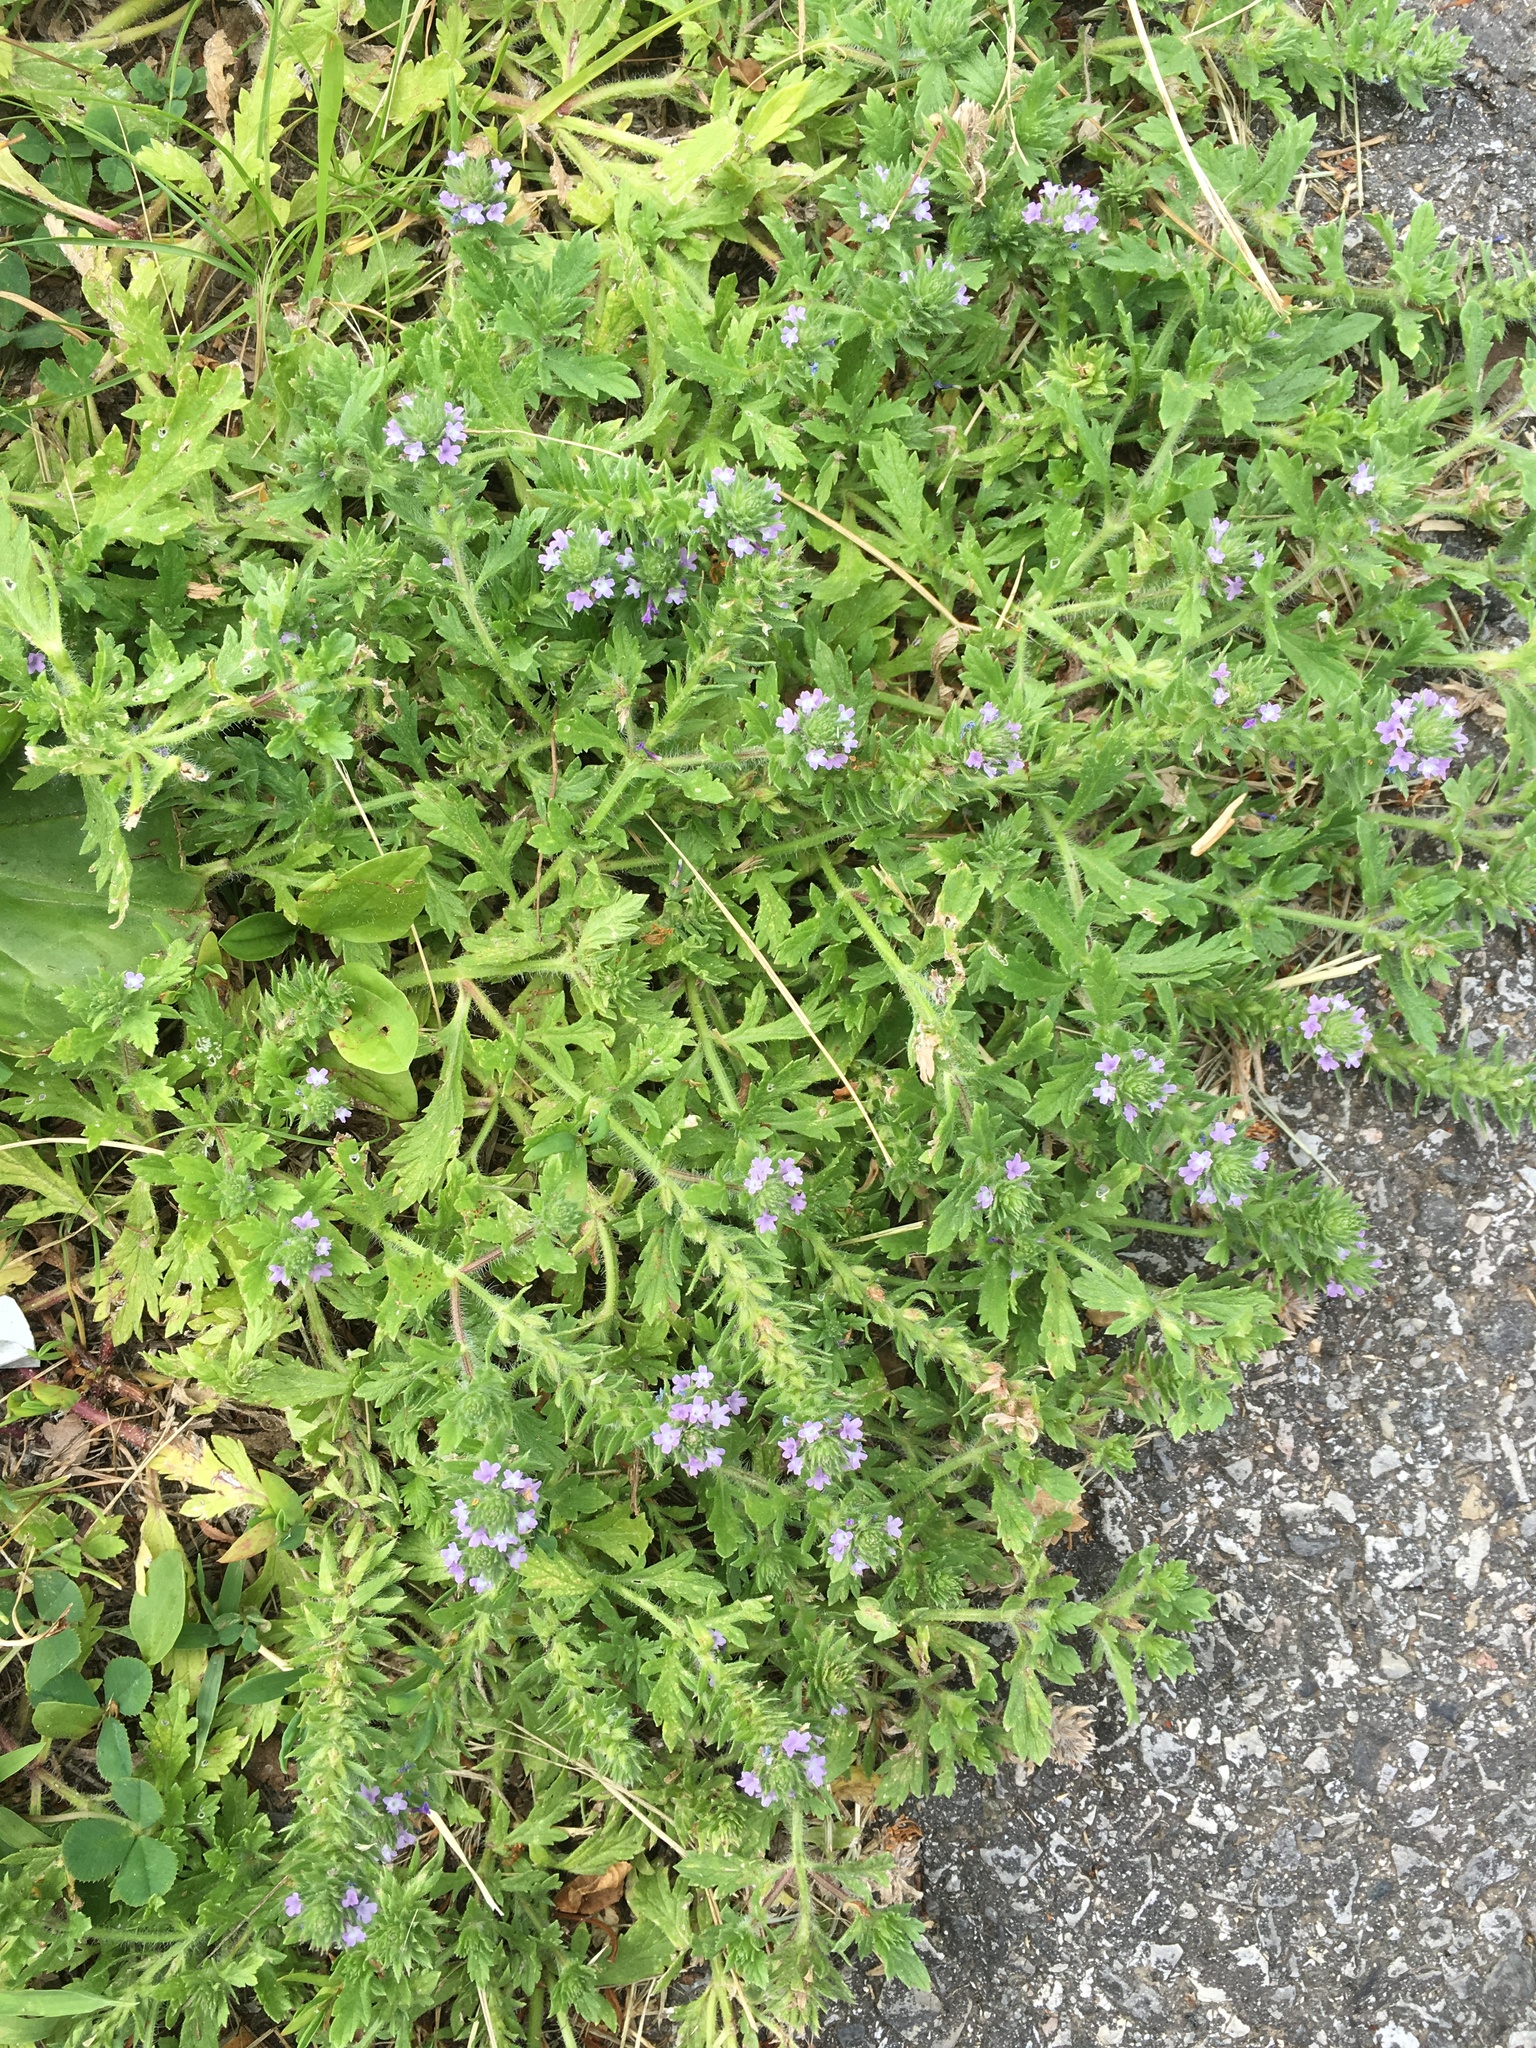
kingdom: Plantae
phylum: Tracheophyta
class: Magnoliopsida
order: Lamiales
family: Verbenaceae
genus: Verbena
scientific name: Verbena bracteata
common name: Bracted vervain
